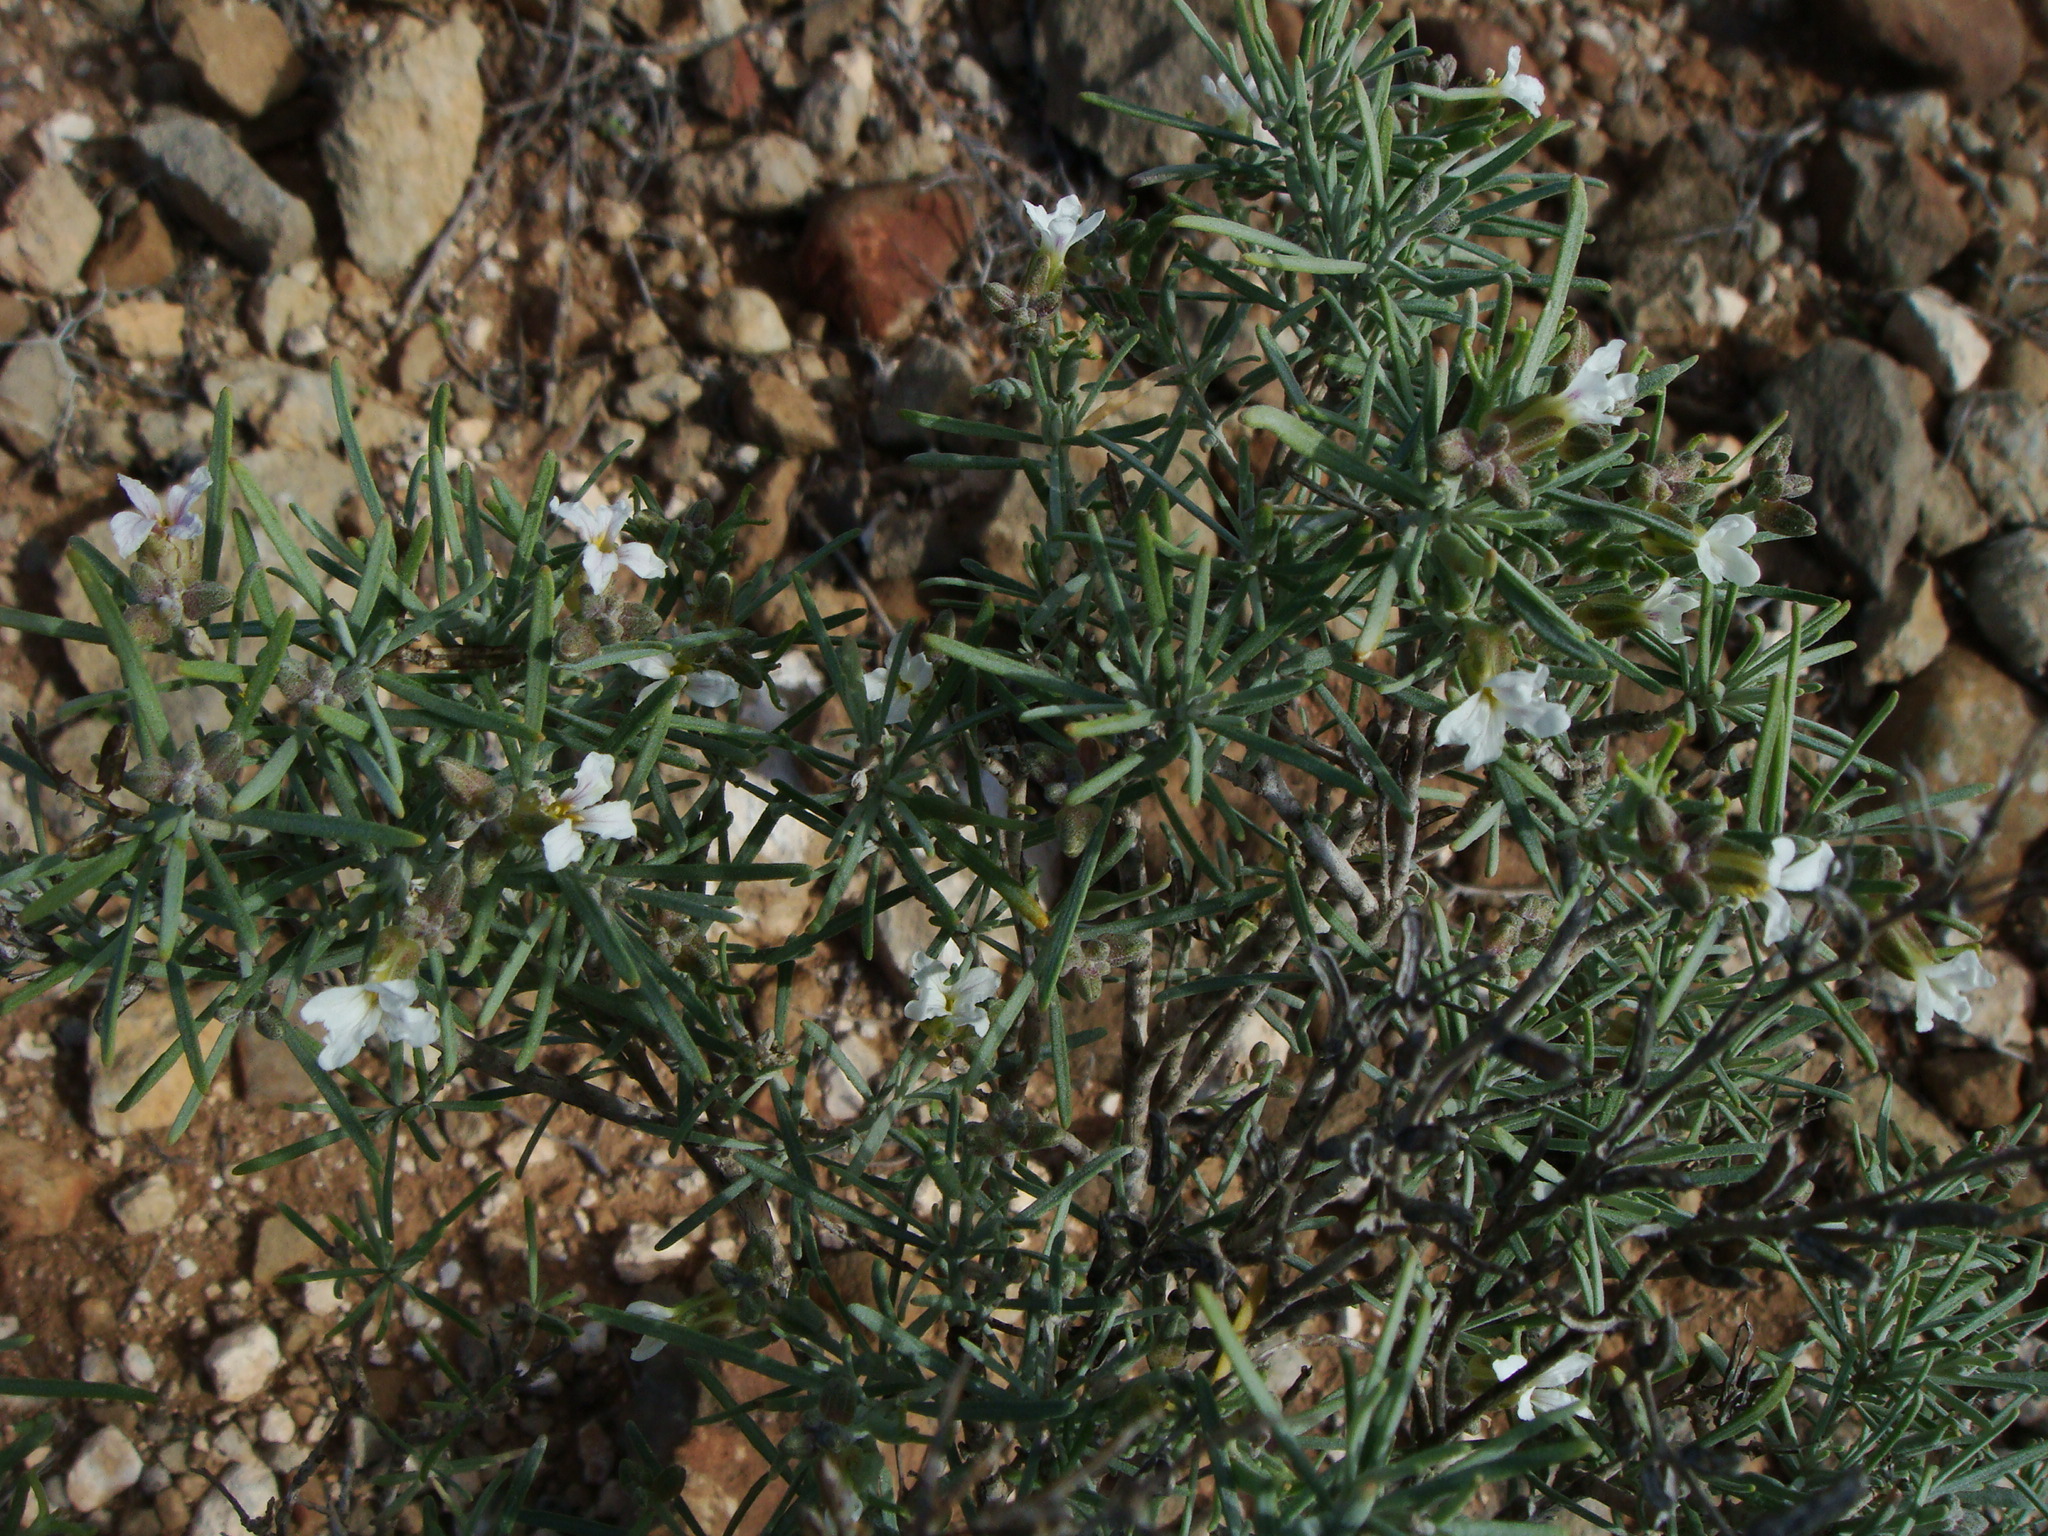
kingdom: Plantae
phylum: Tracheophyta
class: Magnoliopsida
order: Brassicales
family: Brassicaceae
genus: Parolinia
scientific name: Parolinia intermedia
